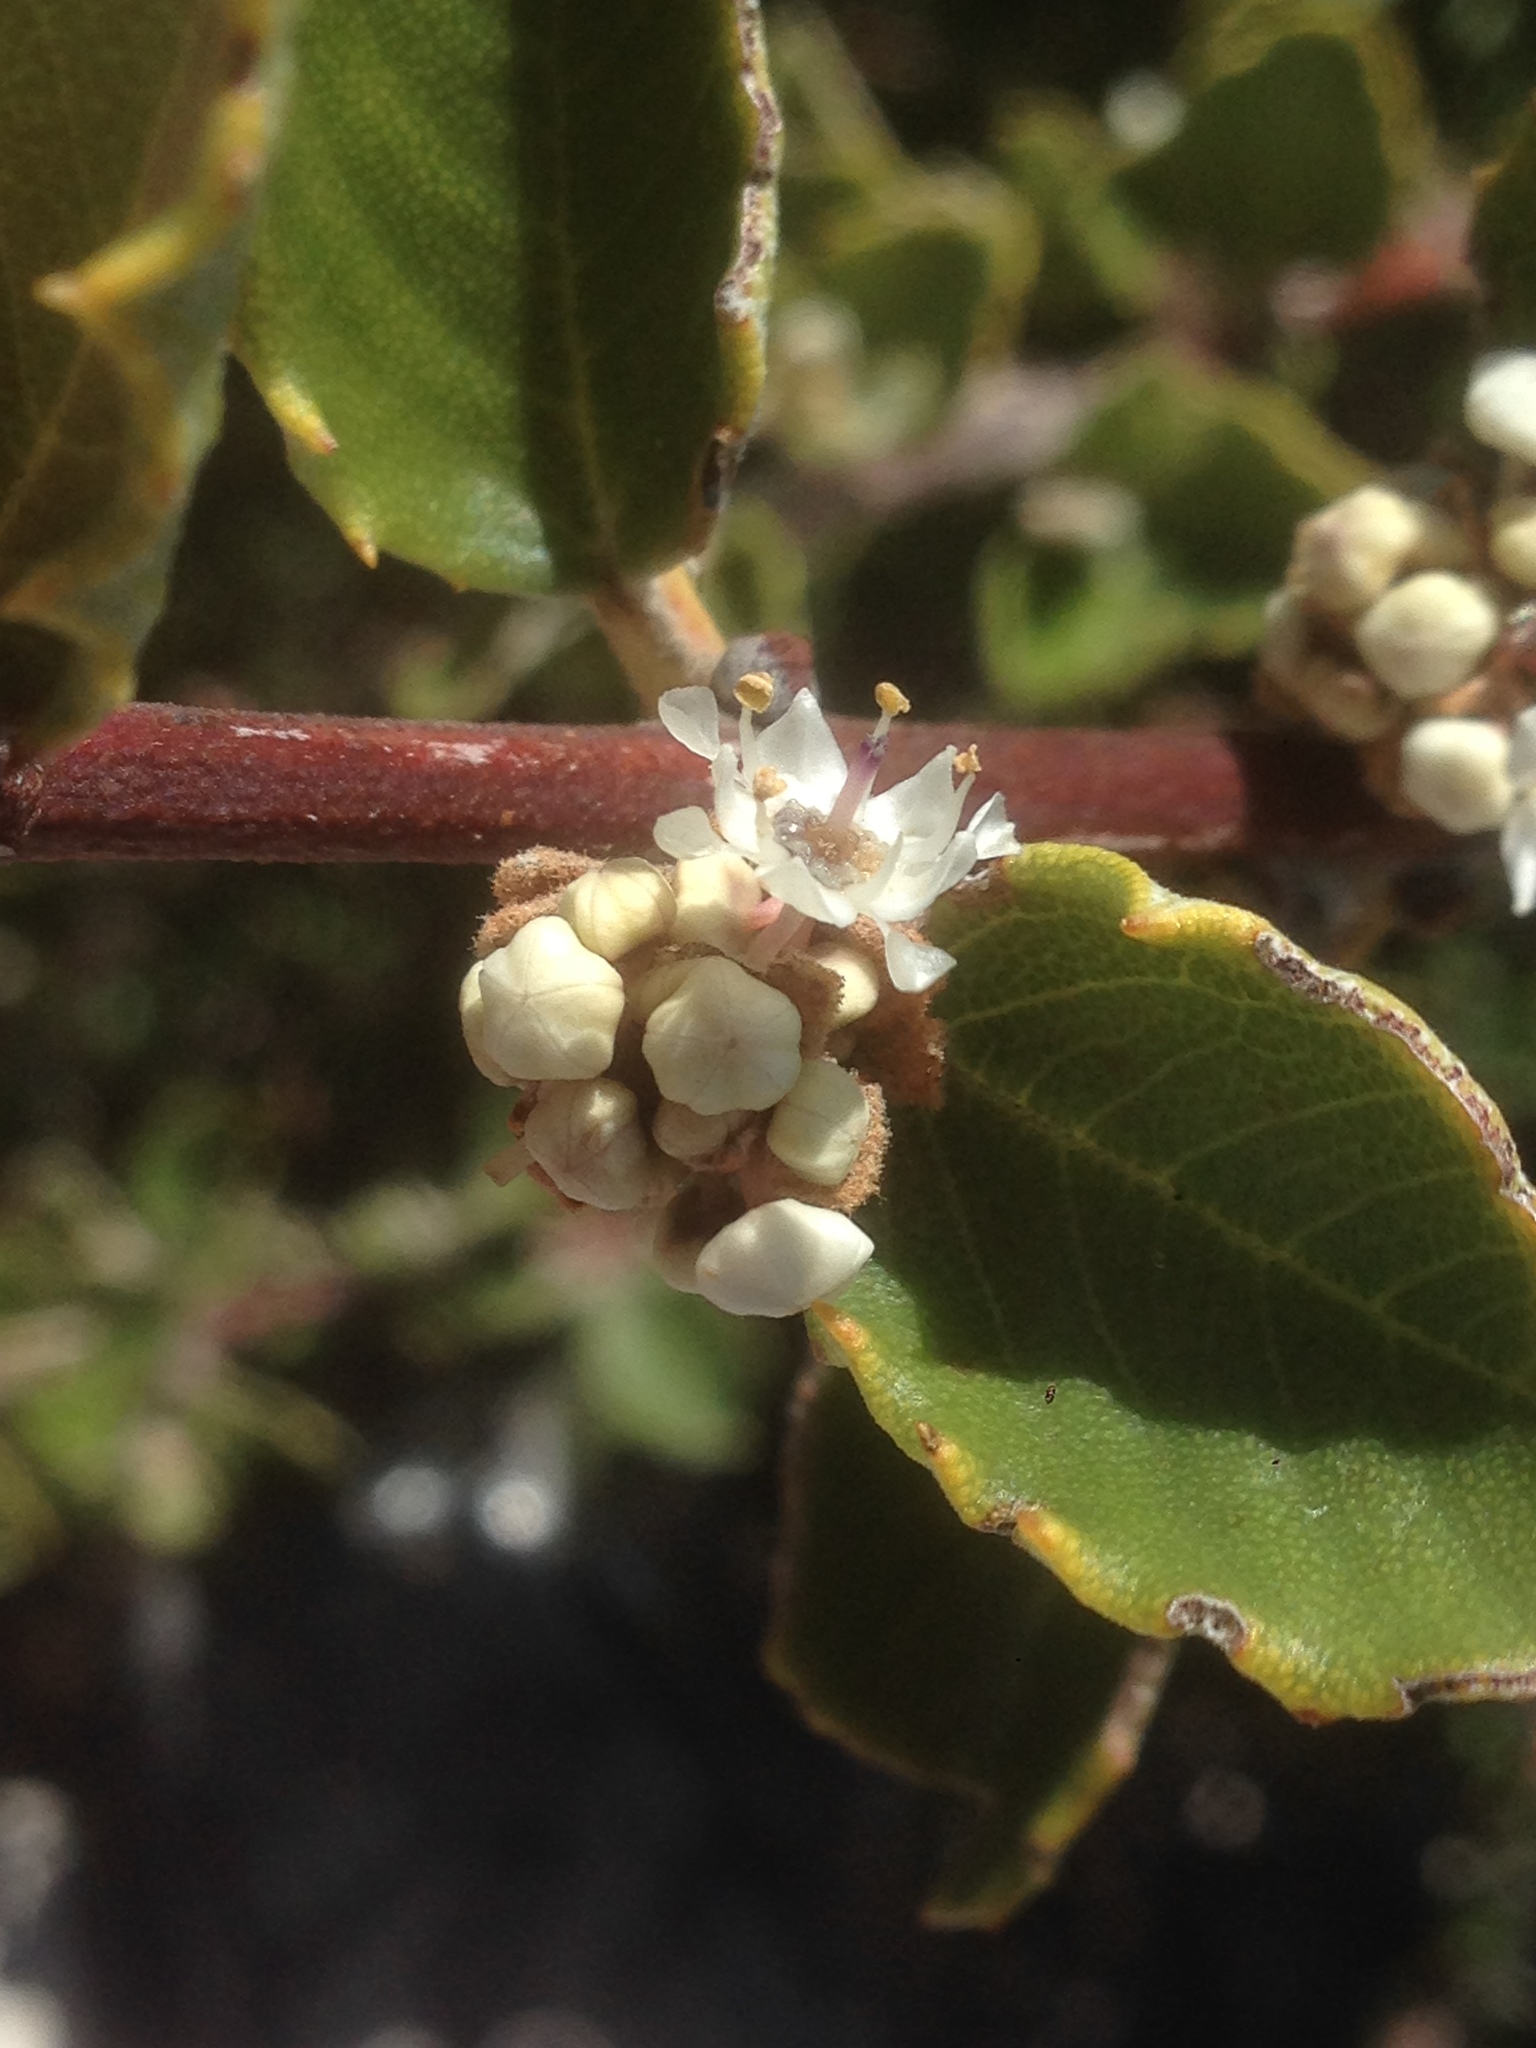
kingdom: Plantae
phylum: Tracheophyta
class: Magnoliopsida
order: Rosales
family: Rhamnaceae
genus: Ceanothus
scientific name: Ceanothus crassifolius
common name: Hoaryleaf ceanothus
